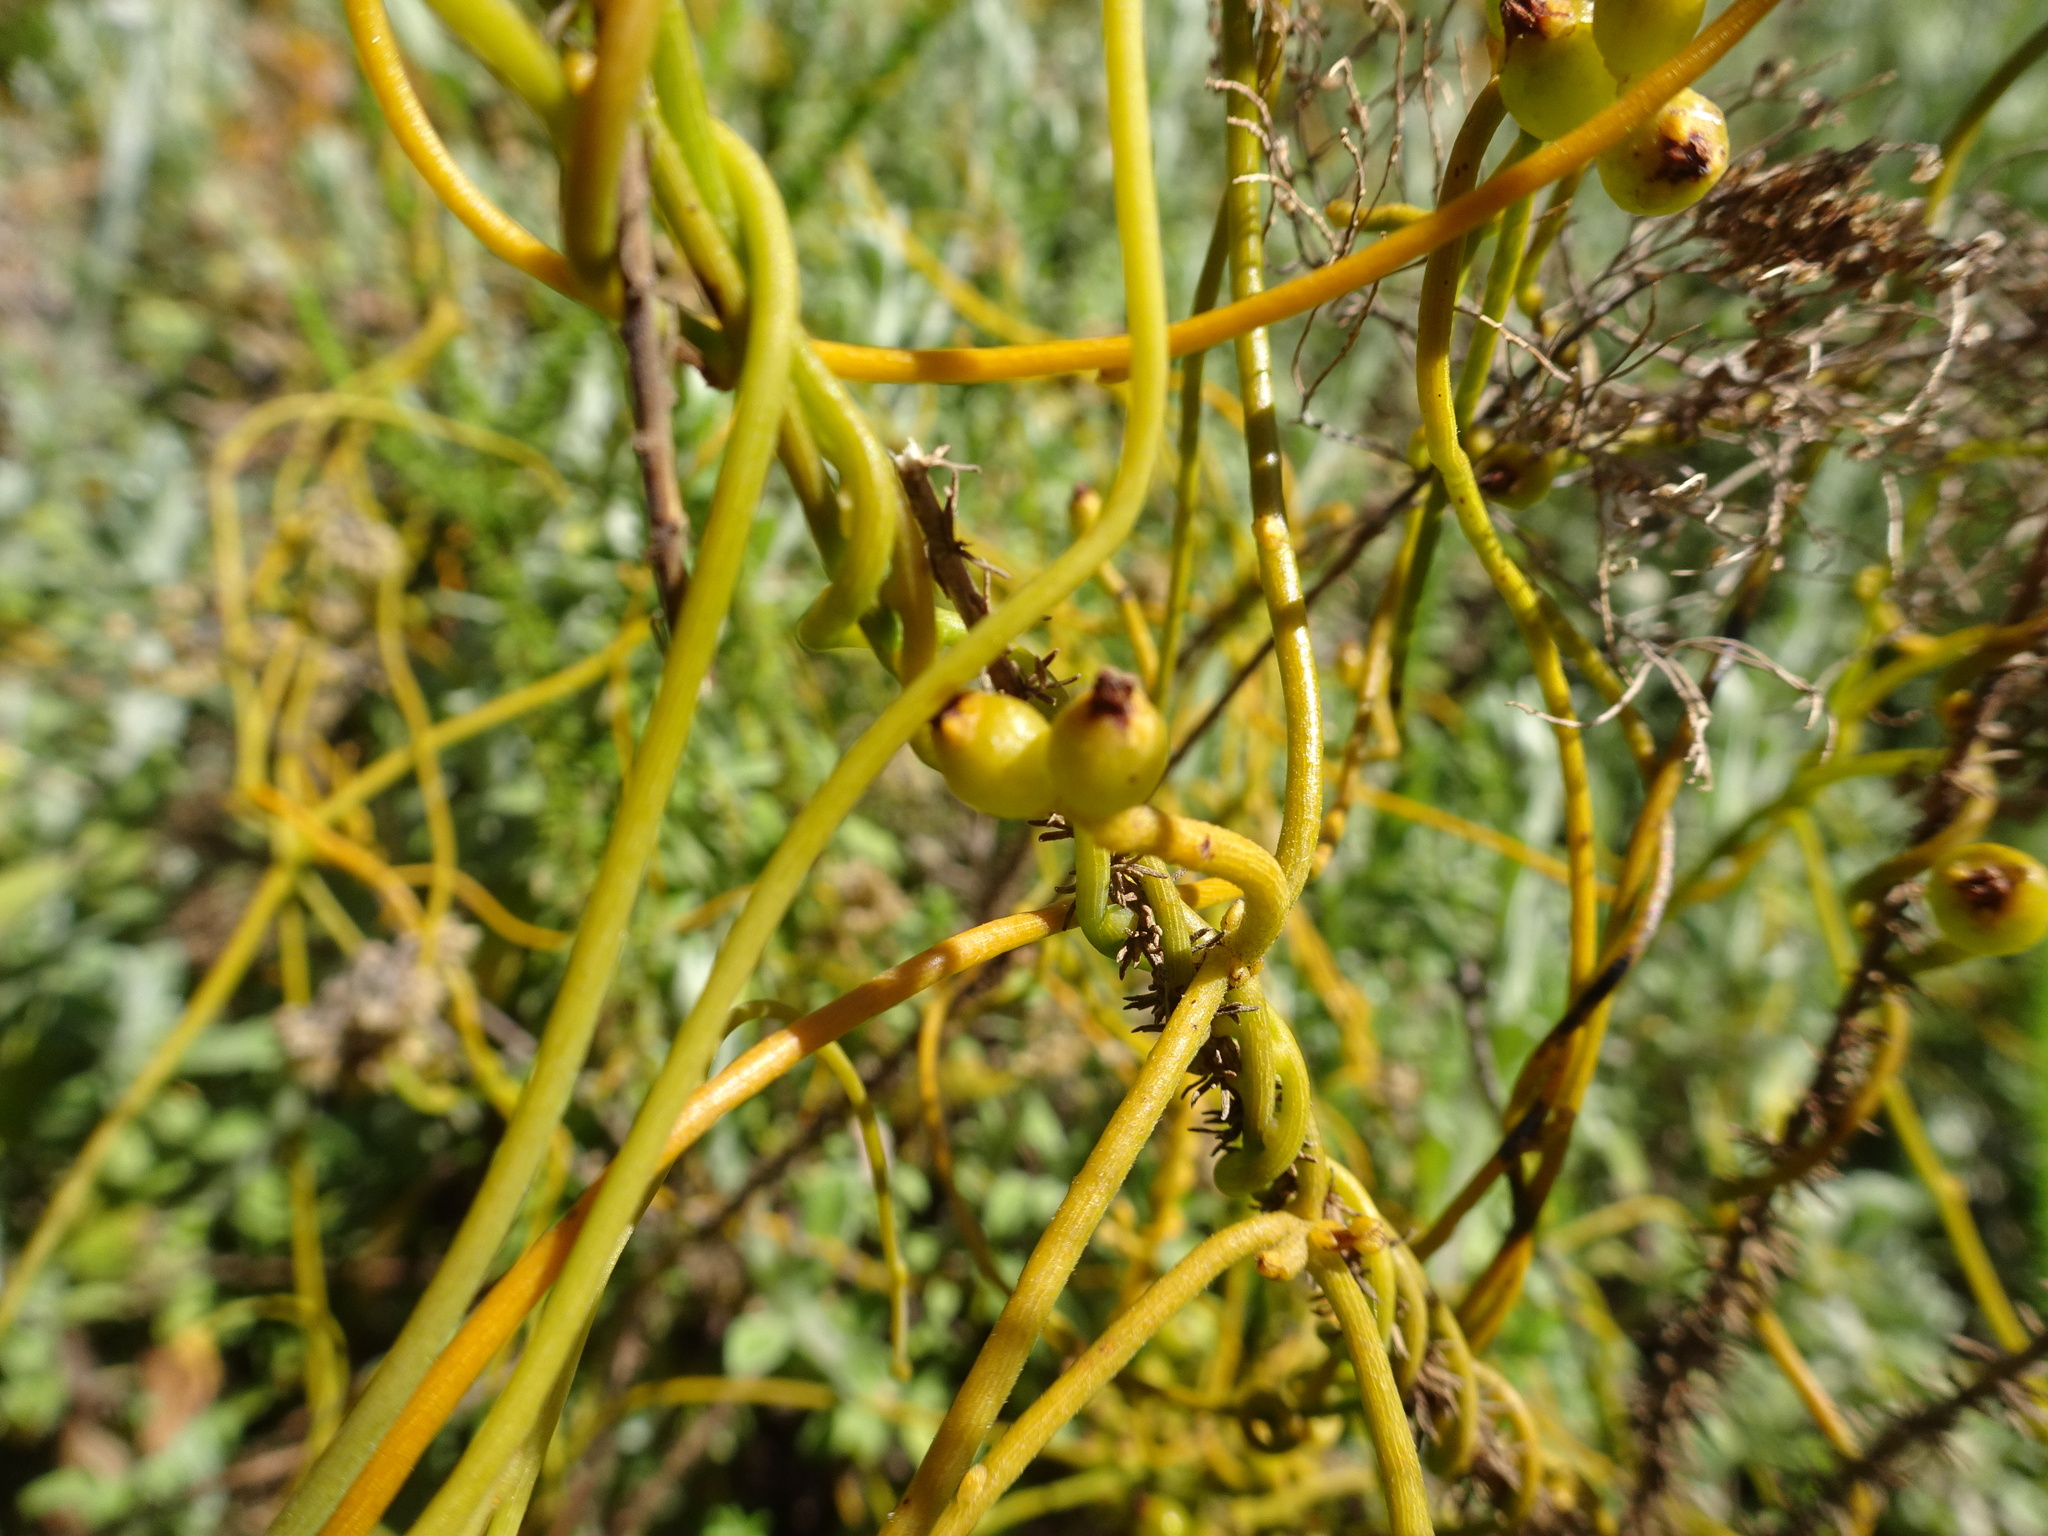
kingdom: Plantae
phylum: Tracheophyta
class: Magnoliopsida
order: Laurales
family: Lauraceae
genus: Cassytha
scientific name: Cassytha ciliolata
